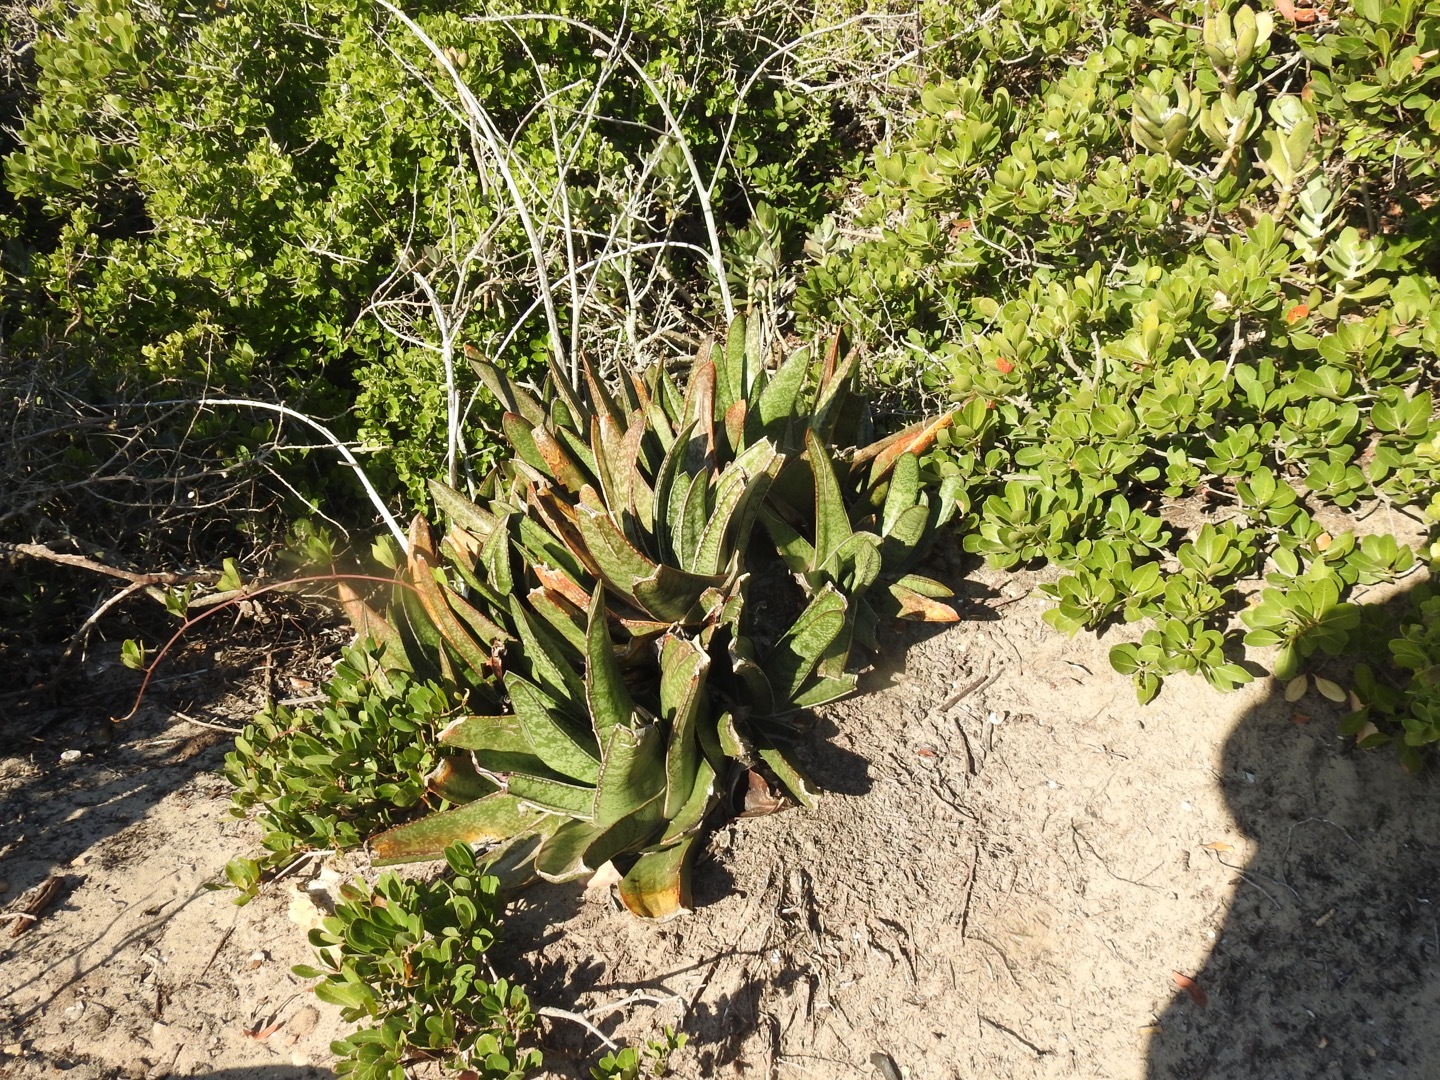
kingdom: Plantae
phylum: Tracheophyta
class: Liliopsida
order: Asparagales
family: Asphodelaceae
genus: Gasteria
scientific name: Gasteria acinacifolia
